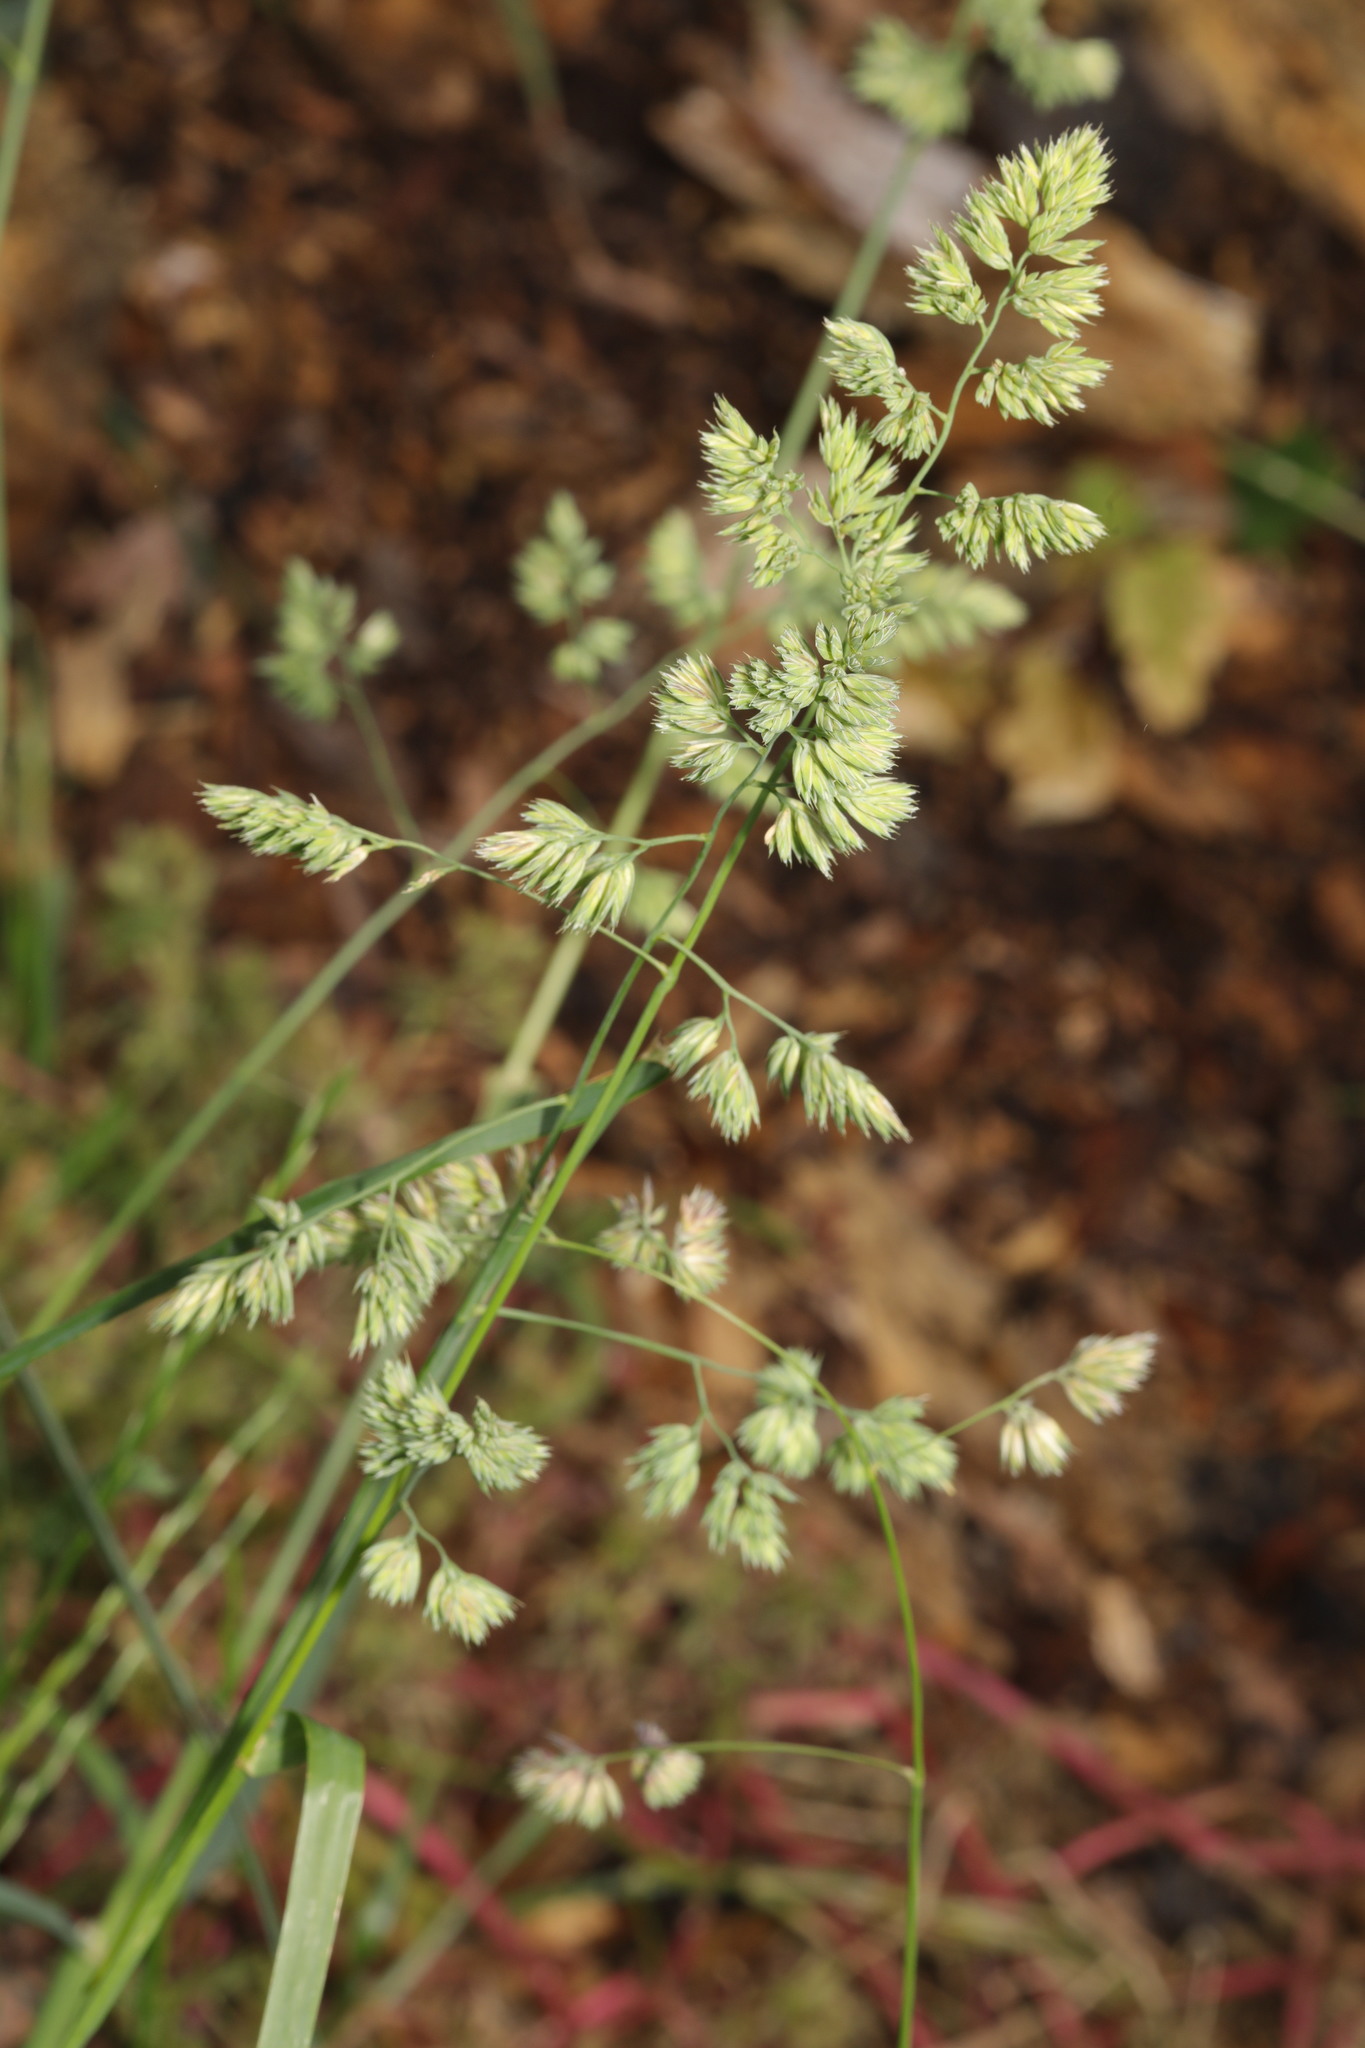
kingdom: Plantae
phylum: Tracheophyta
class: Liliopsida
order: Poales
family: Poaceae
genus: Dactylis
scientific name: Dactylis glomerata
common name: Orchardgrass
